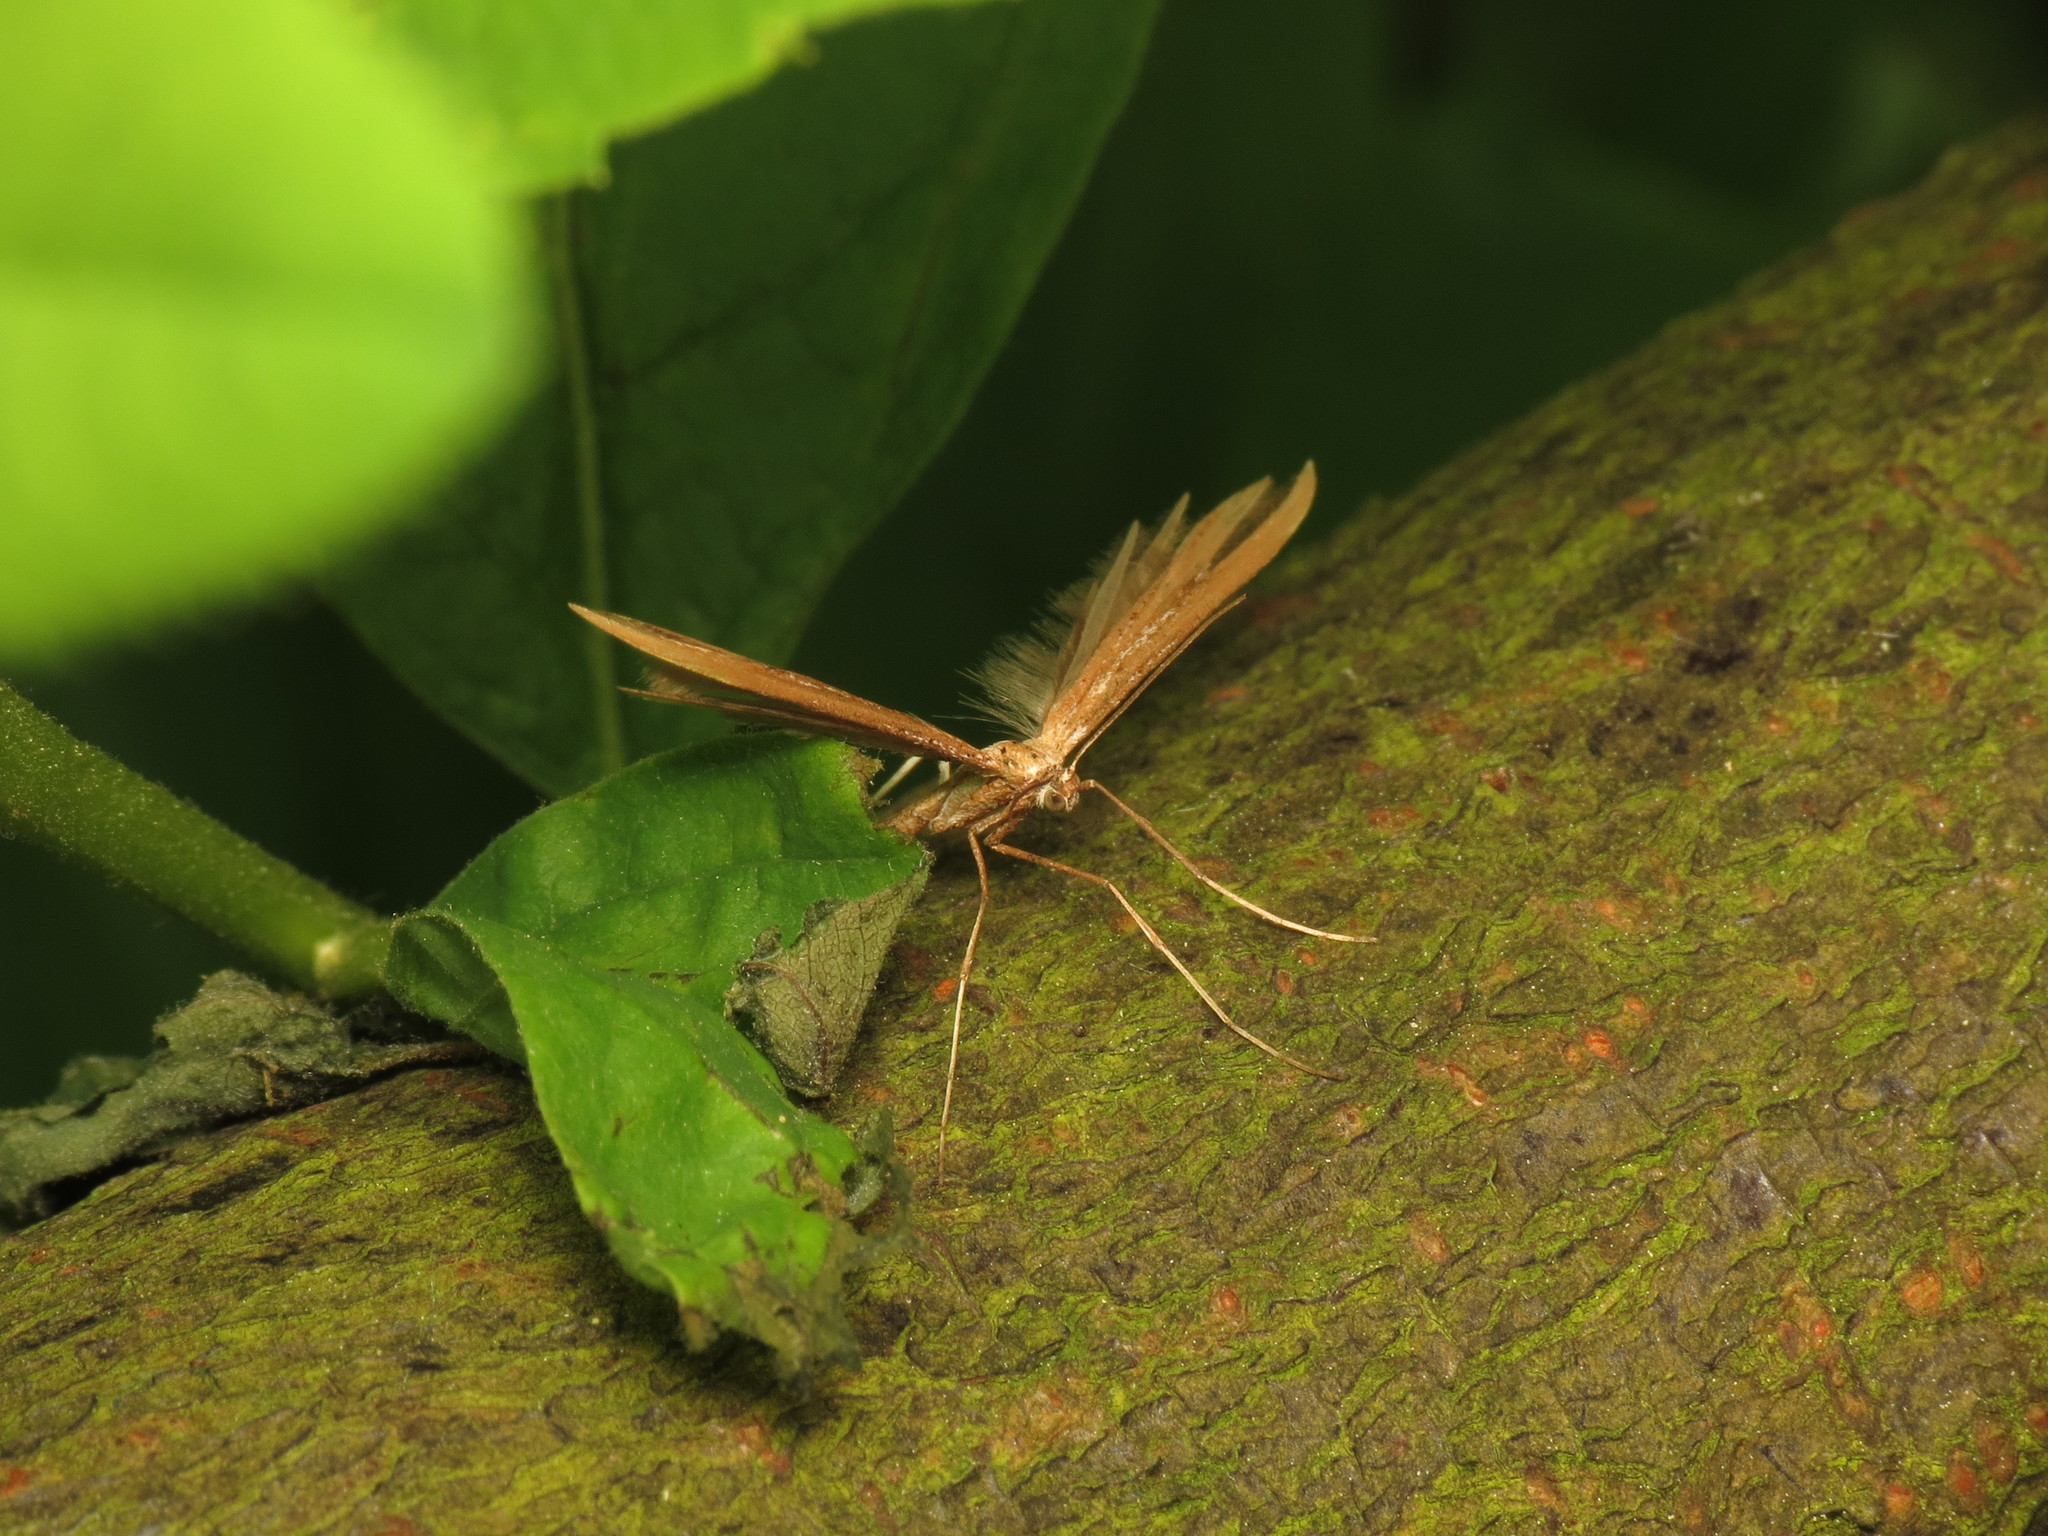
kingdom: Animalia
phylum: Arthropoda
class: Insecta
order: Lepidoptera
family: Pterophoridae
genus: Emmelina
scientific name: Emmelina monodactyla
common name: Common plume
